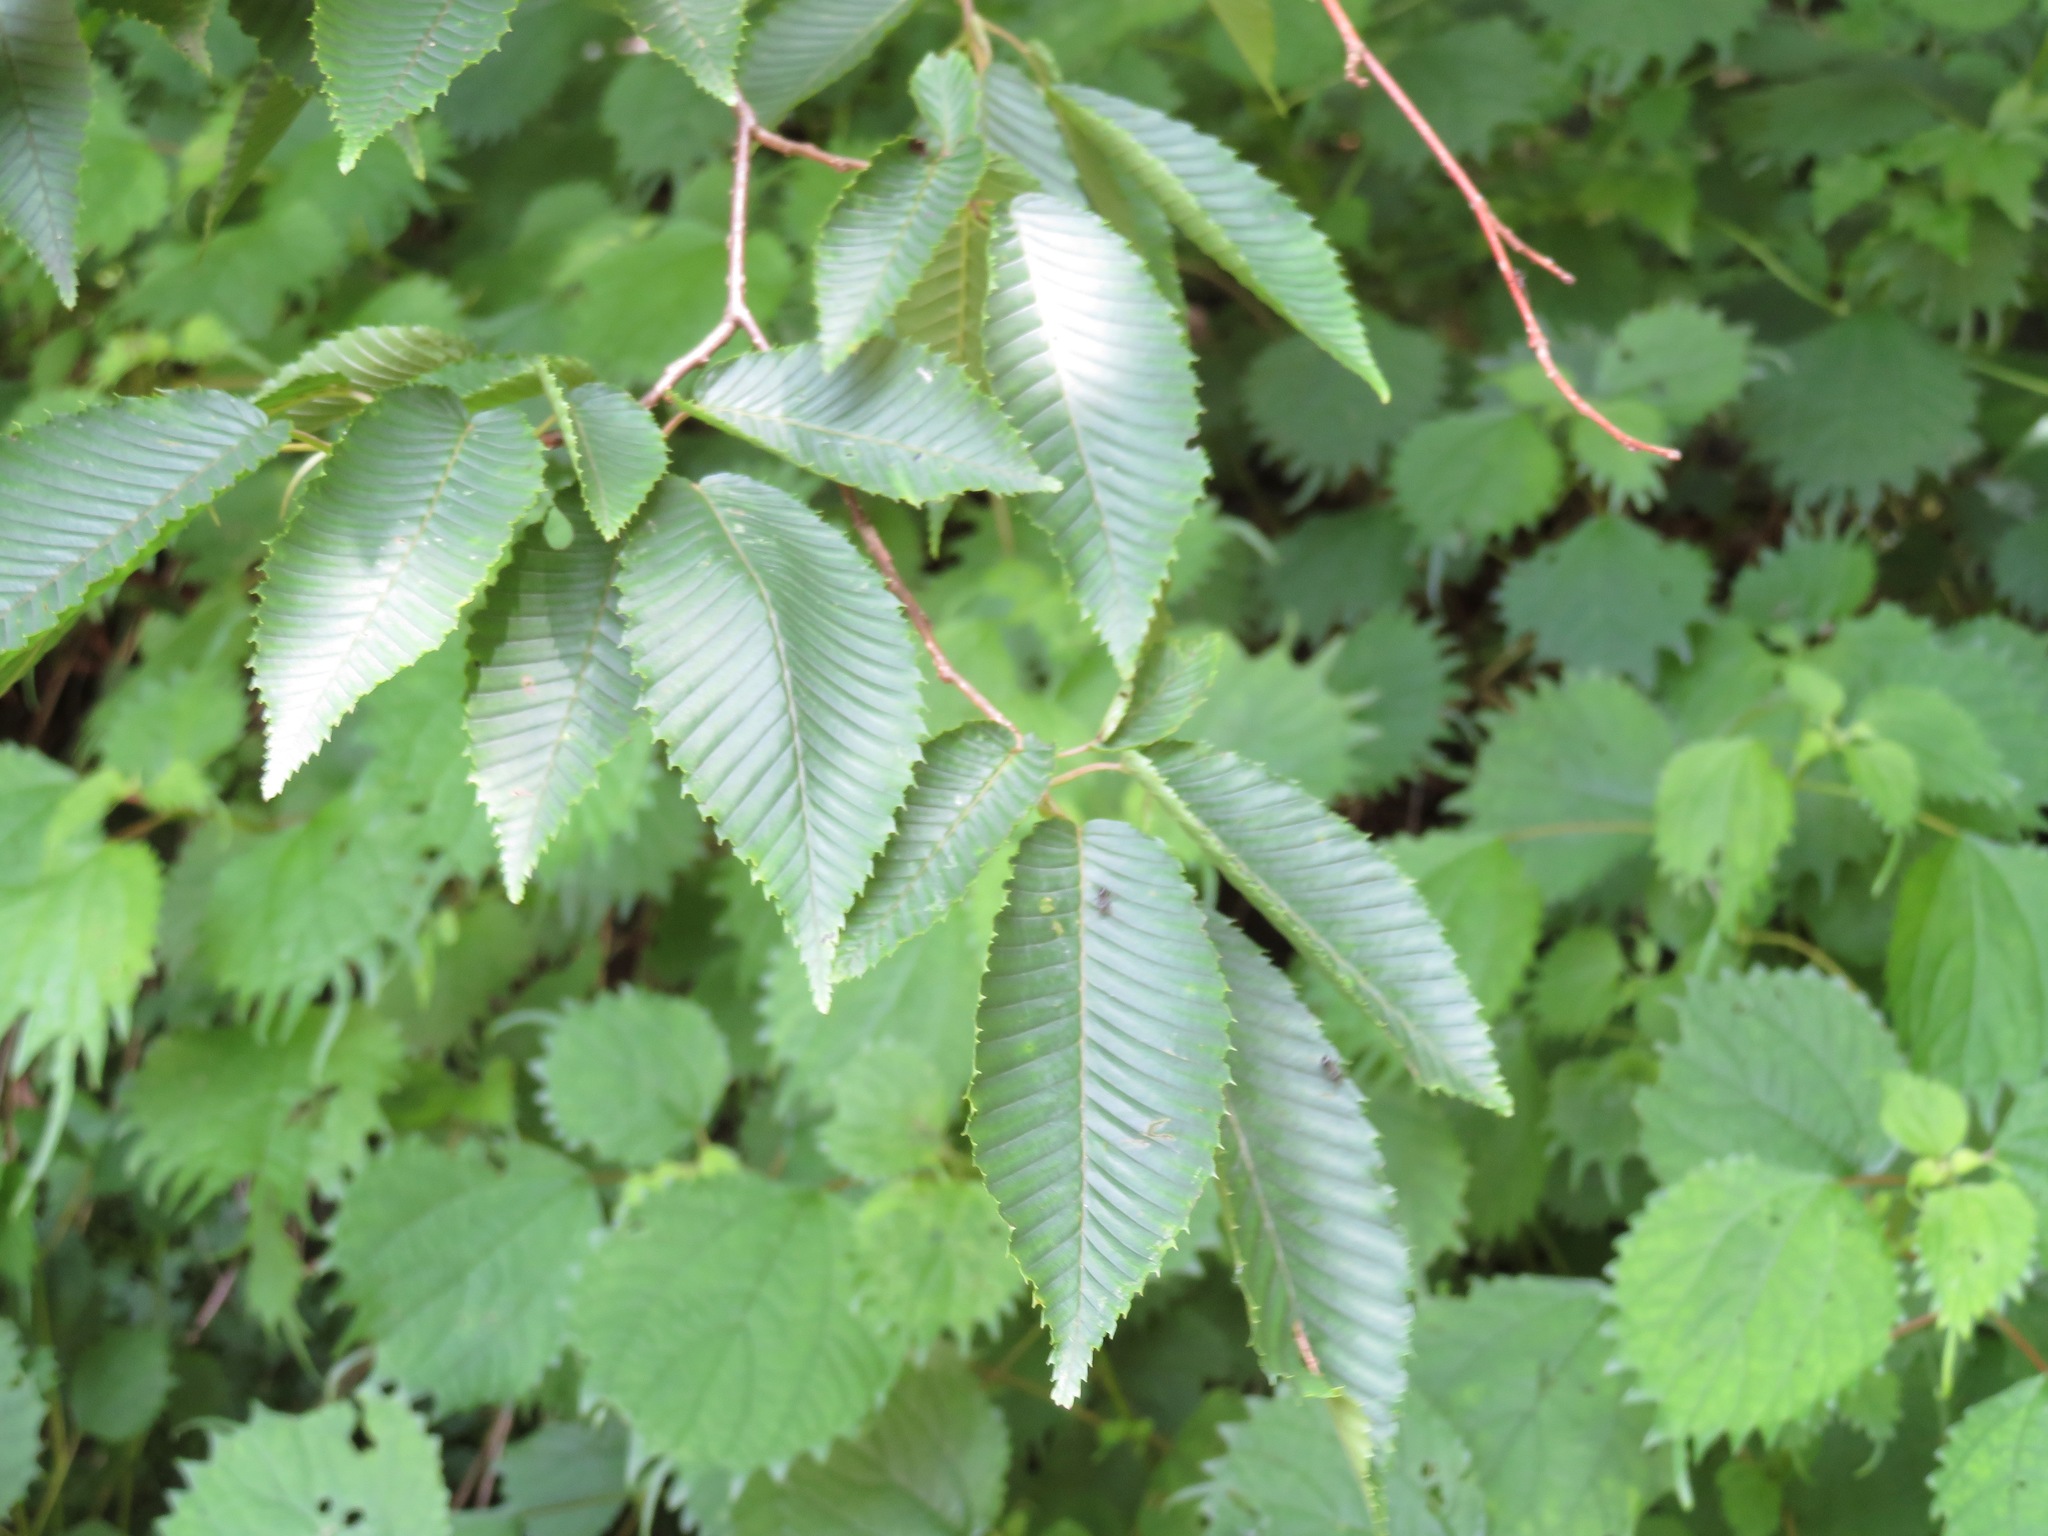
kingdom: Plantae
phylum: Tracheophyta
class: Magnoliopsida
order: Fagales
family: Betulaceae
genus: Carpinus
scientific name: Carpinus japonica
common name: Japanese hornbeam
